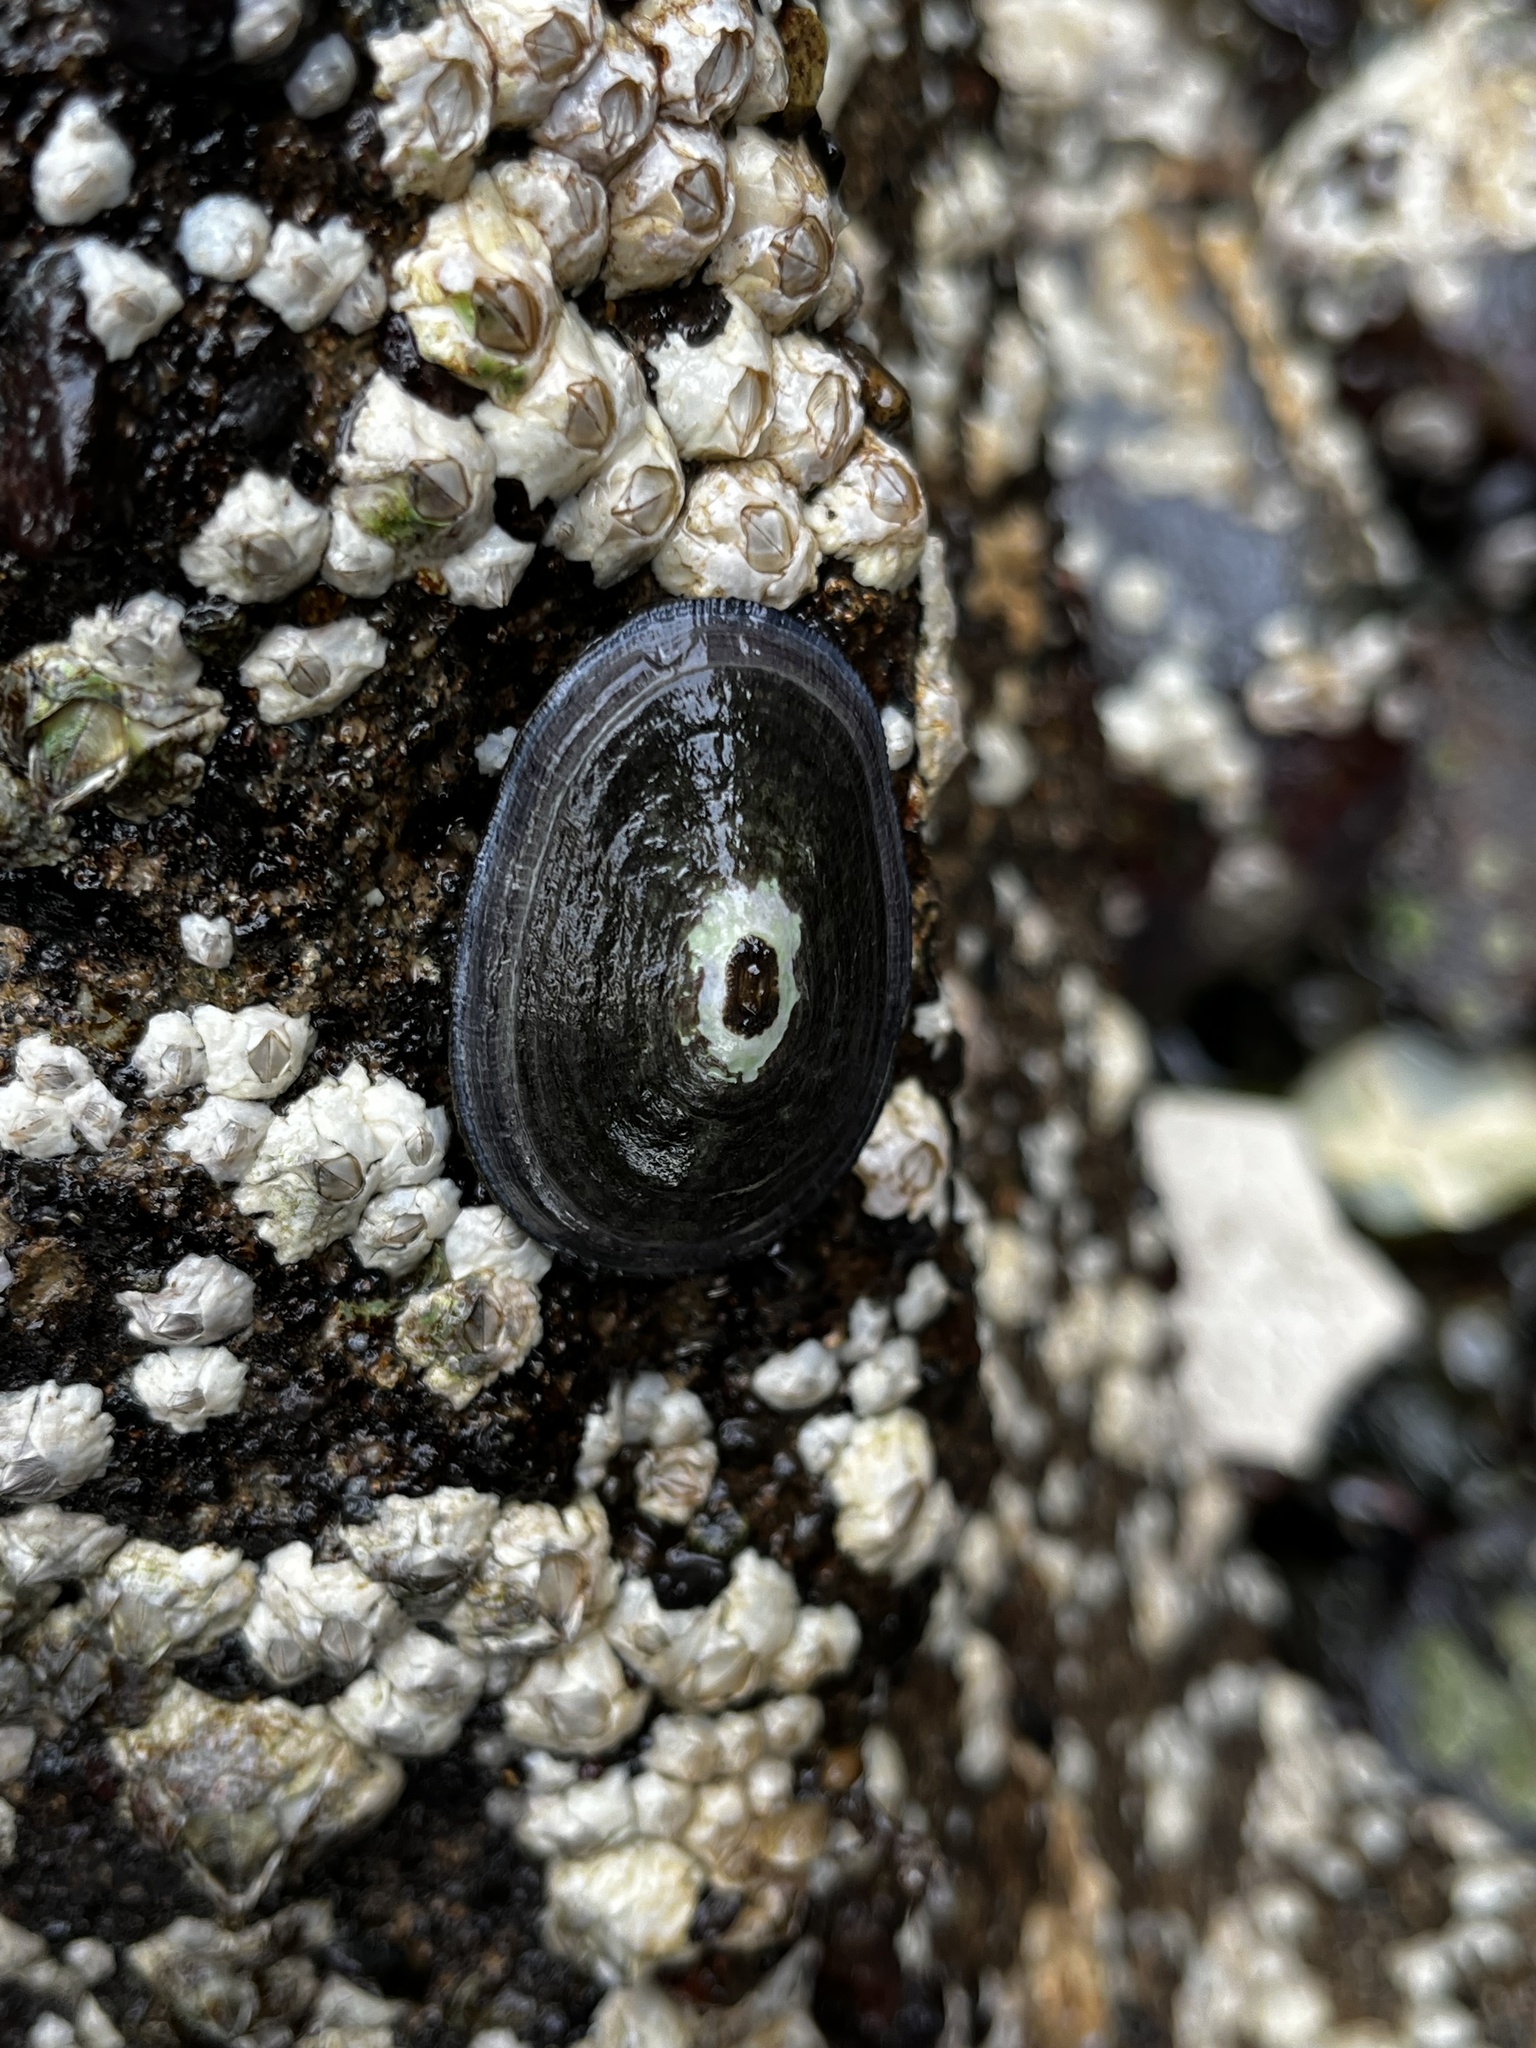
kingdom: Animalia
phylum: Mollusca
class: Gastropoda
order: Lepetellida
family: Fissurellidae
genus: Fissurella
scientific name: Fissurella nigra
